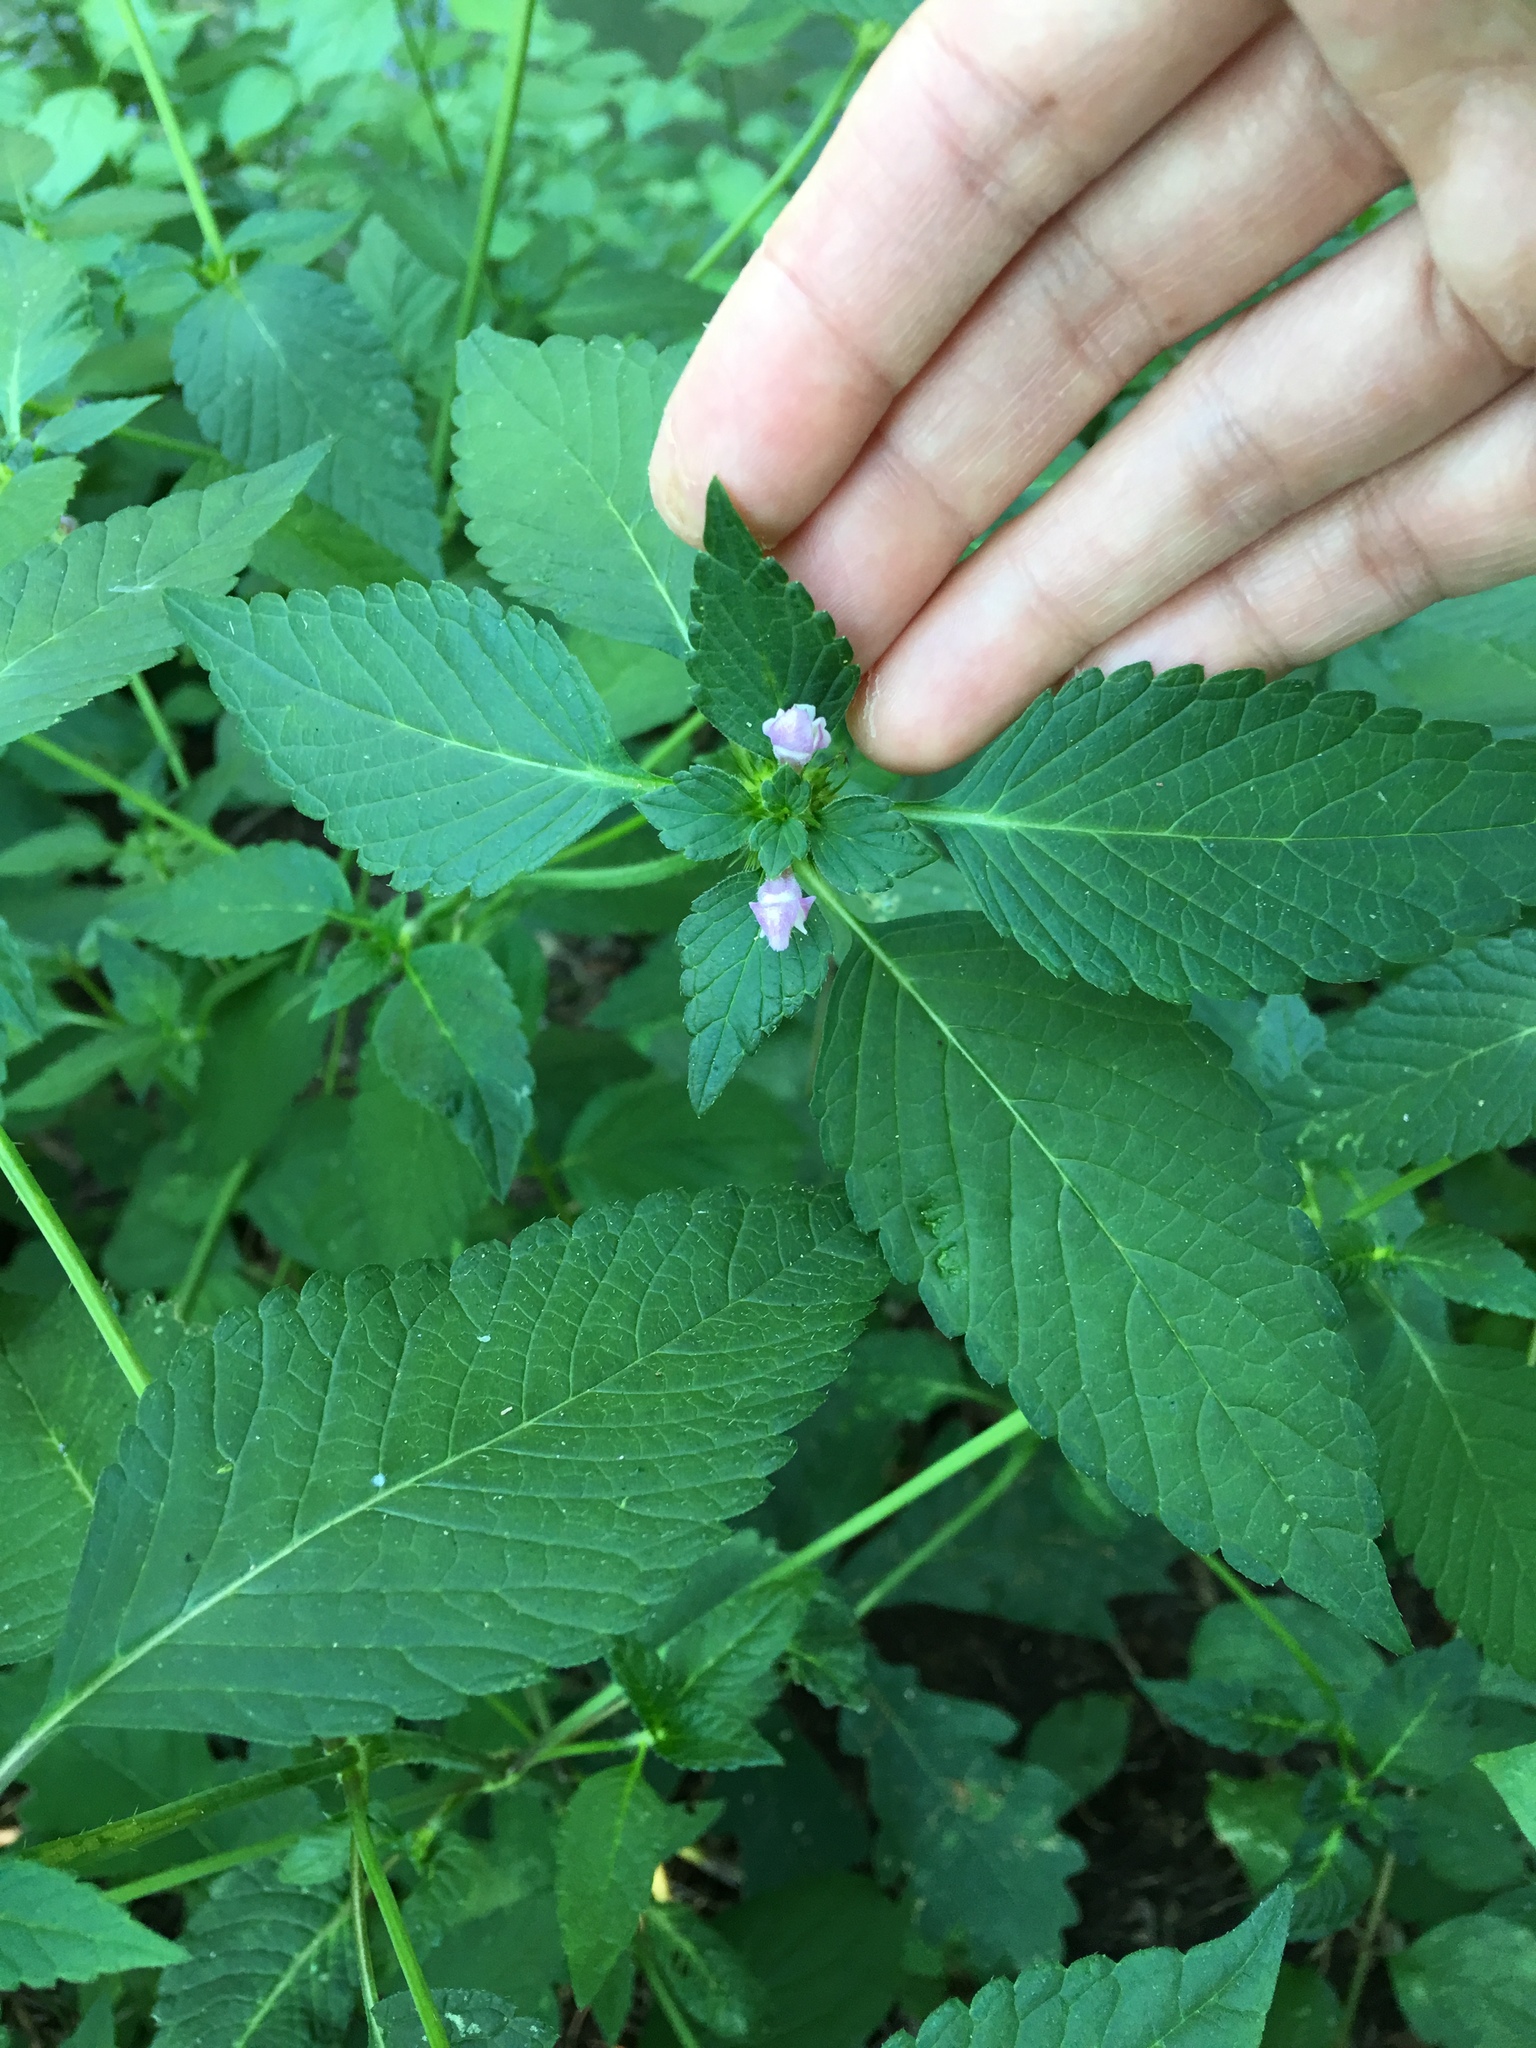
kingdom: Plantae
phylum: Tracheophyta
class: Magnoliopsida
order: Lamiales
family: Lamiaceae
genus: Galeopsis
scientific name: Galeopsis tetrahit
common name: Common hemp-nettle
